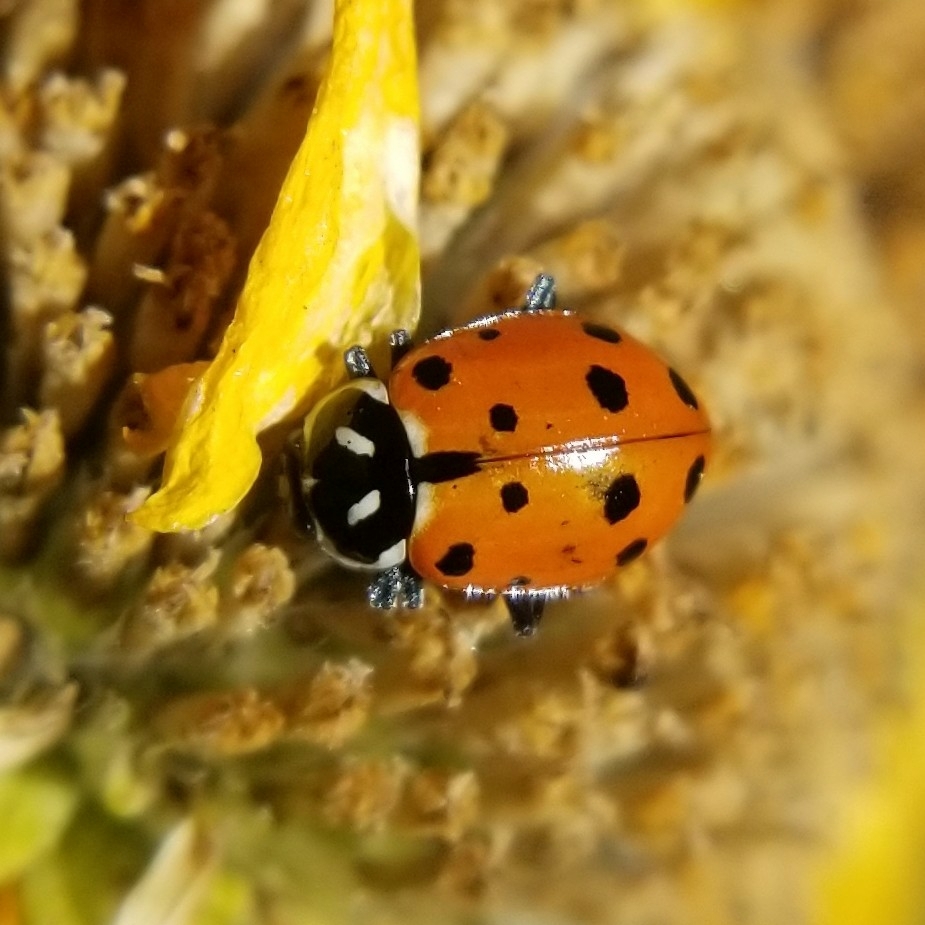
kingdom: Animalia
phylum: Arthropoda
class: Insecta
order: Coleoptera
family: Coccinellidae
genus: Hippodamia
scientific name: Hippodamia convergens
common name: Convergent lady beetle
